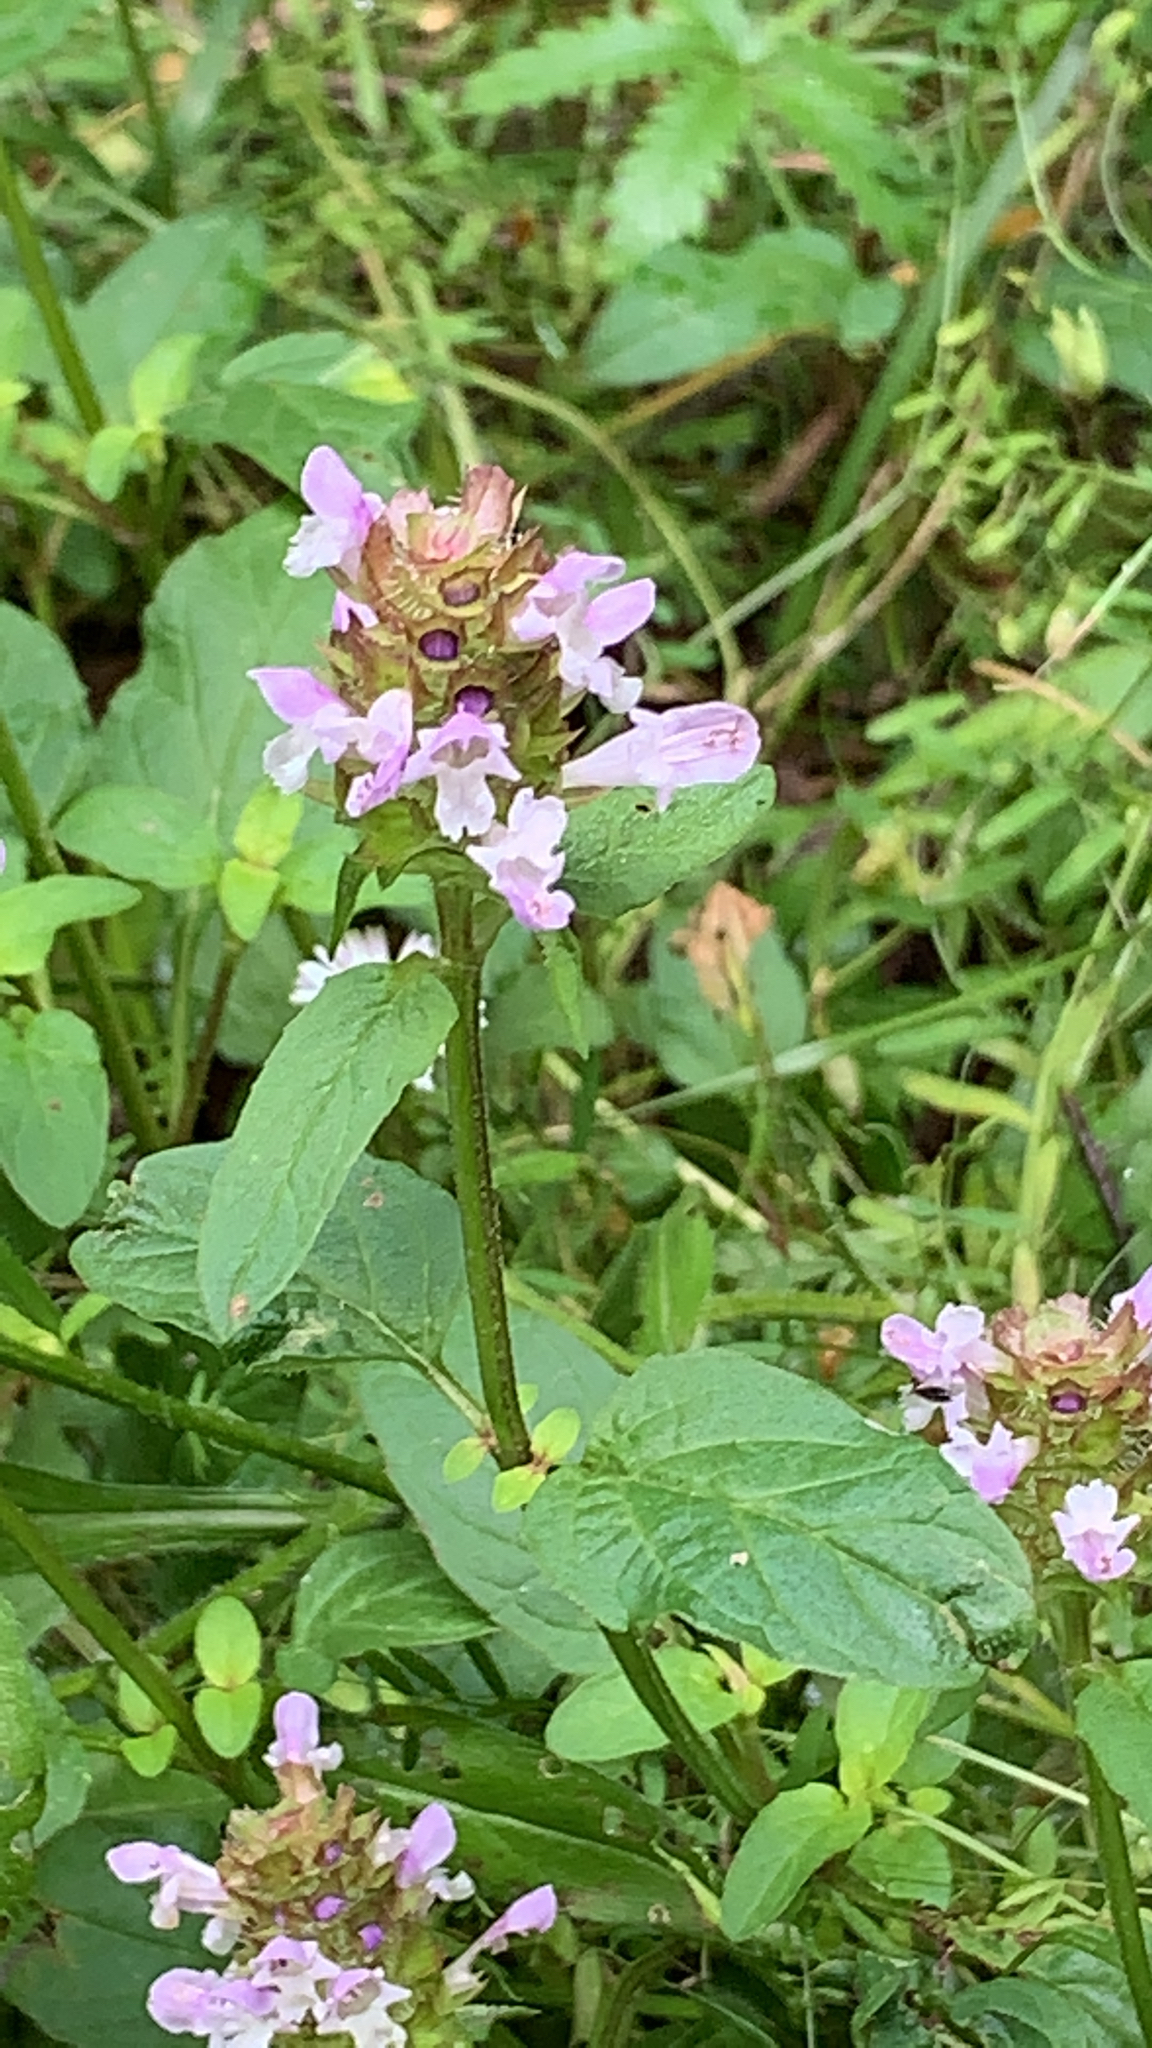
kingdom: Plantae
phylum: Tracheophyta
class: Magnoliopsida
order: Lamiales
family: Lamiaceae
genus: Prunella
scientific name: Prunella vulgaris
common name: Heal-all
